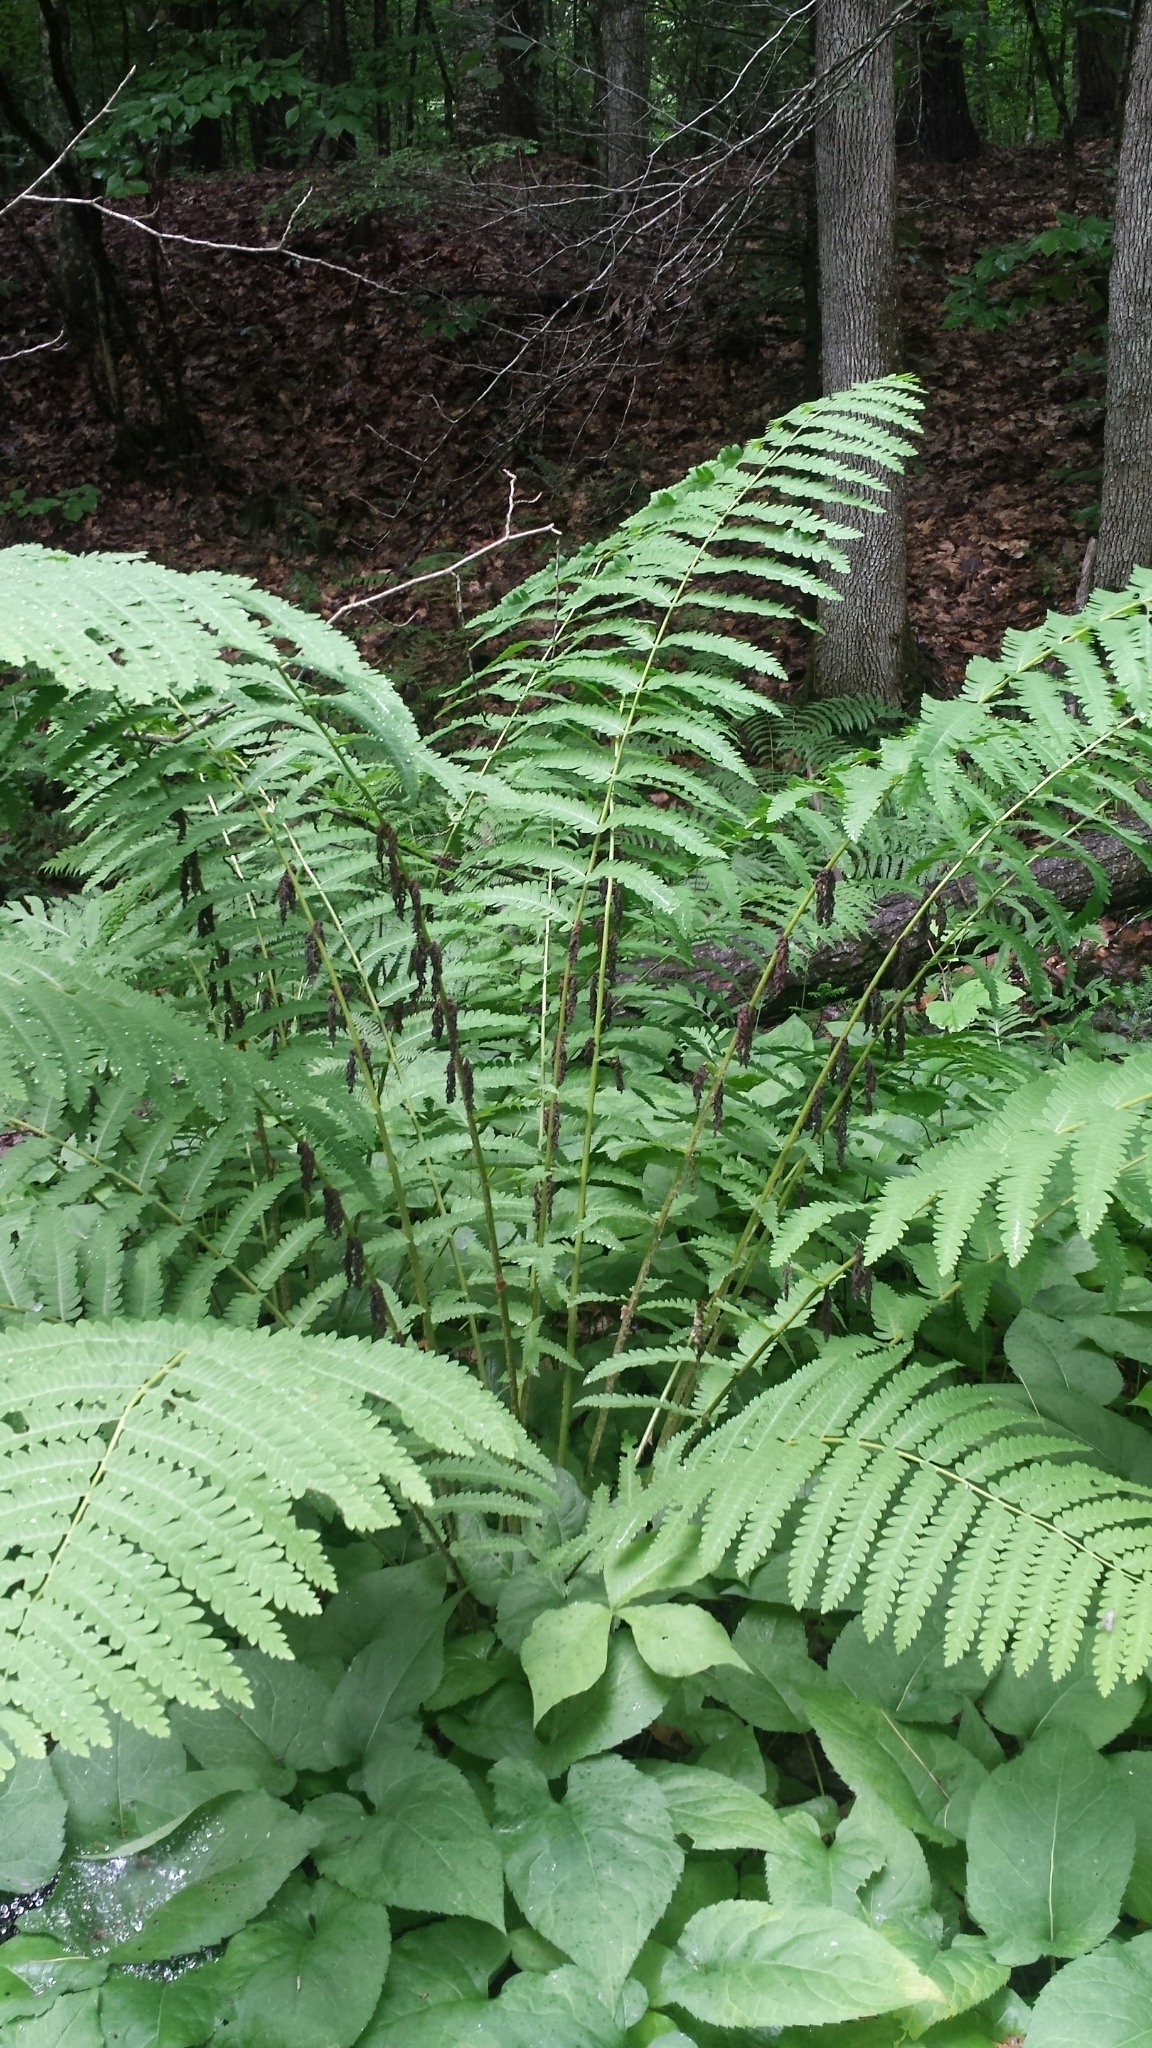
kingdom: Plantae
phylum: Tracheophyta
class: Polypodiopsida
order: Osmundales
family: Osmundaceae
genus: Claytosmunda
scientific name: Claytosmunda claytoniana
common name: Clayton's fern
